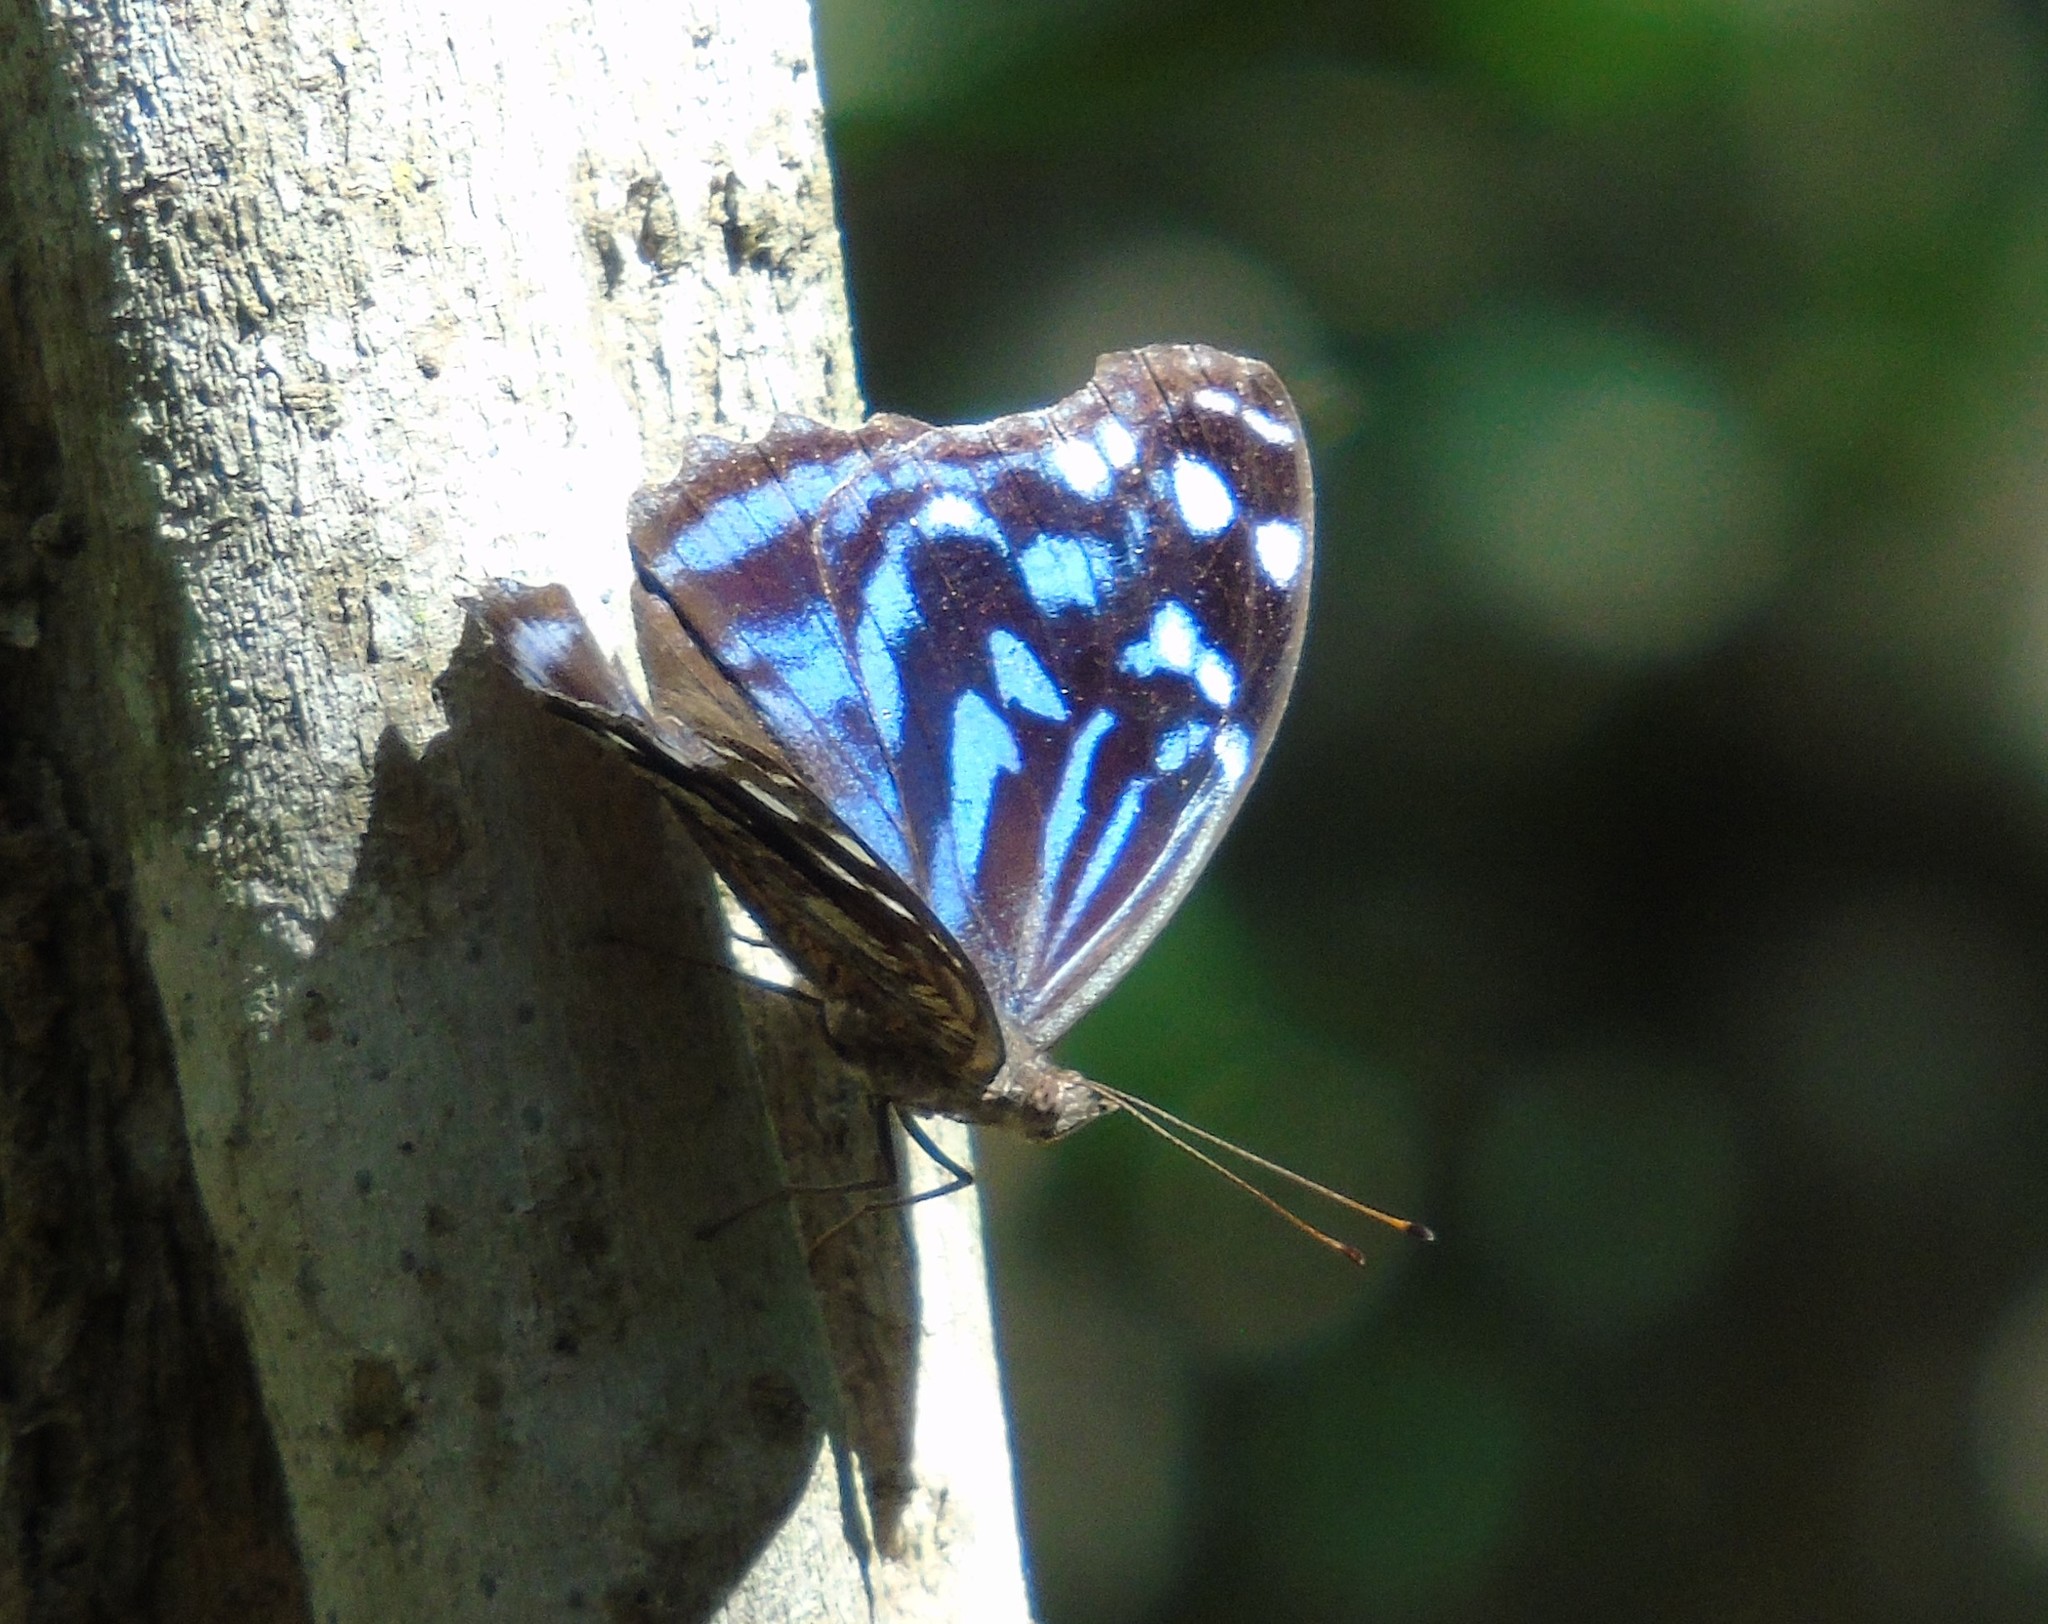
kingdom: Animalia
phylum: Arthropoda
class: Insecta
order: Lepidoptera
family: Nymphalidae
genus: Myscelia
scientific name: Myscelia ethusa
